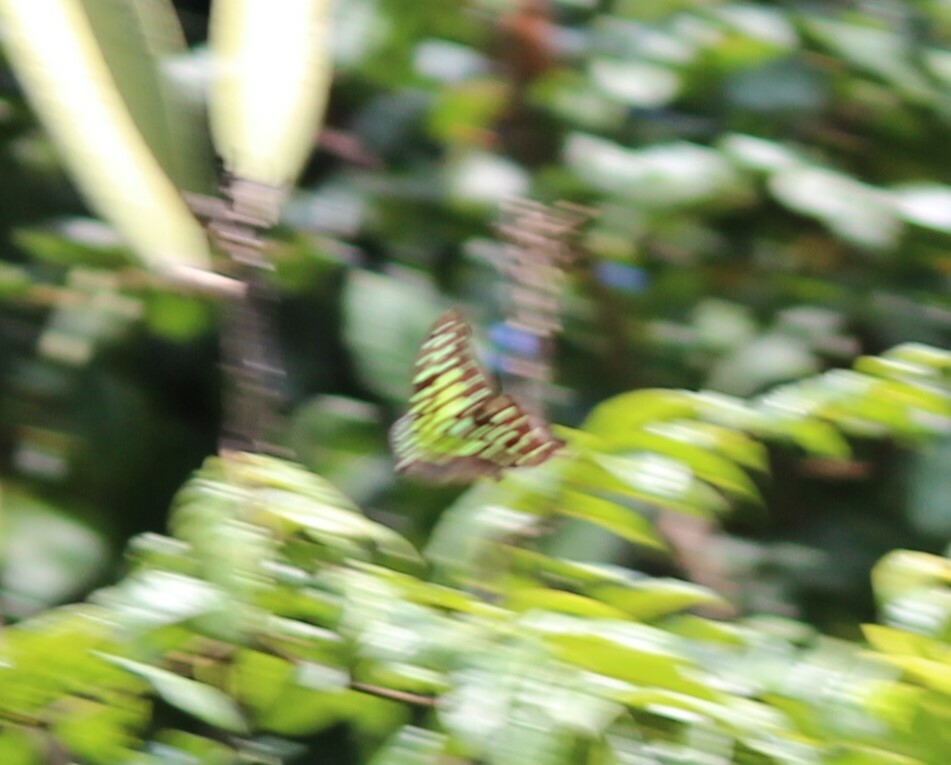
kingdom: Animalia
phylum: Arthropoda
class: Insecta
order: Lepidoptera
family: Papilionidae
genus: Graphium
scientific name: Graphium agamemnon
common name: Tailed jay
